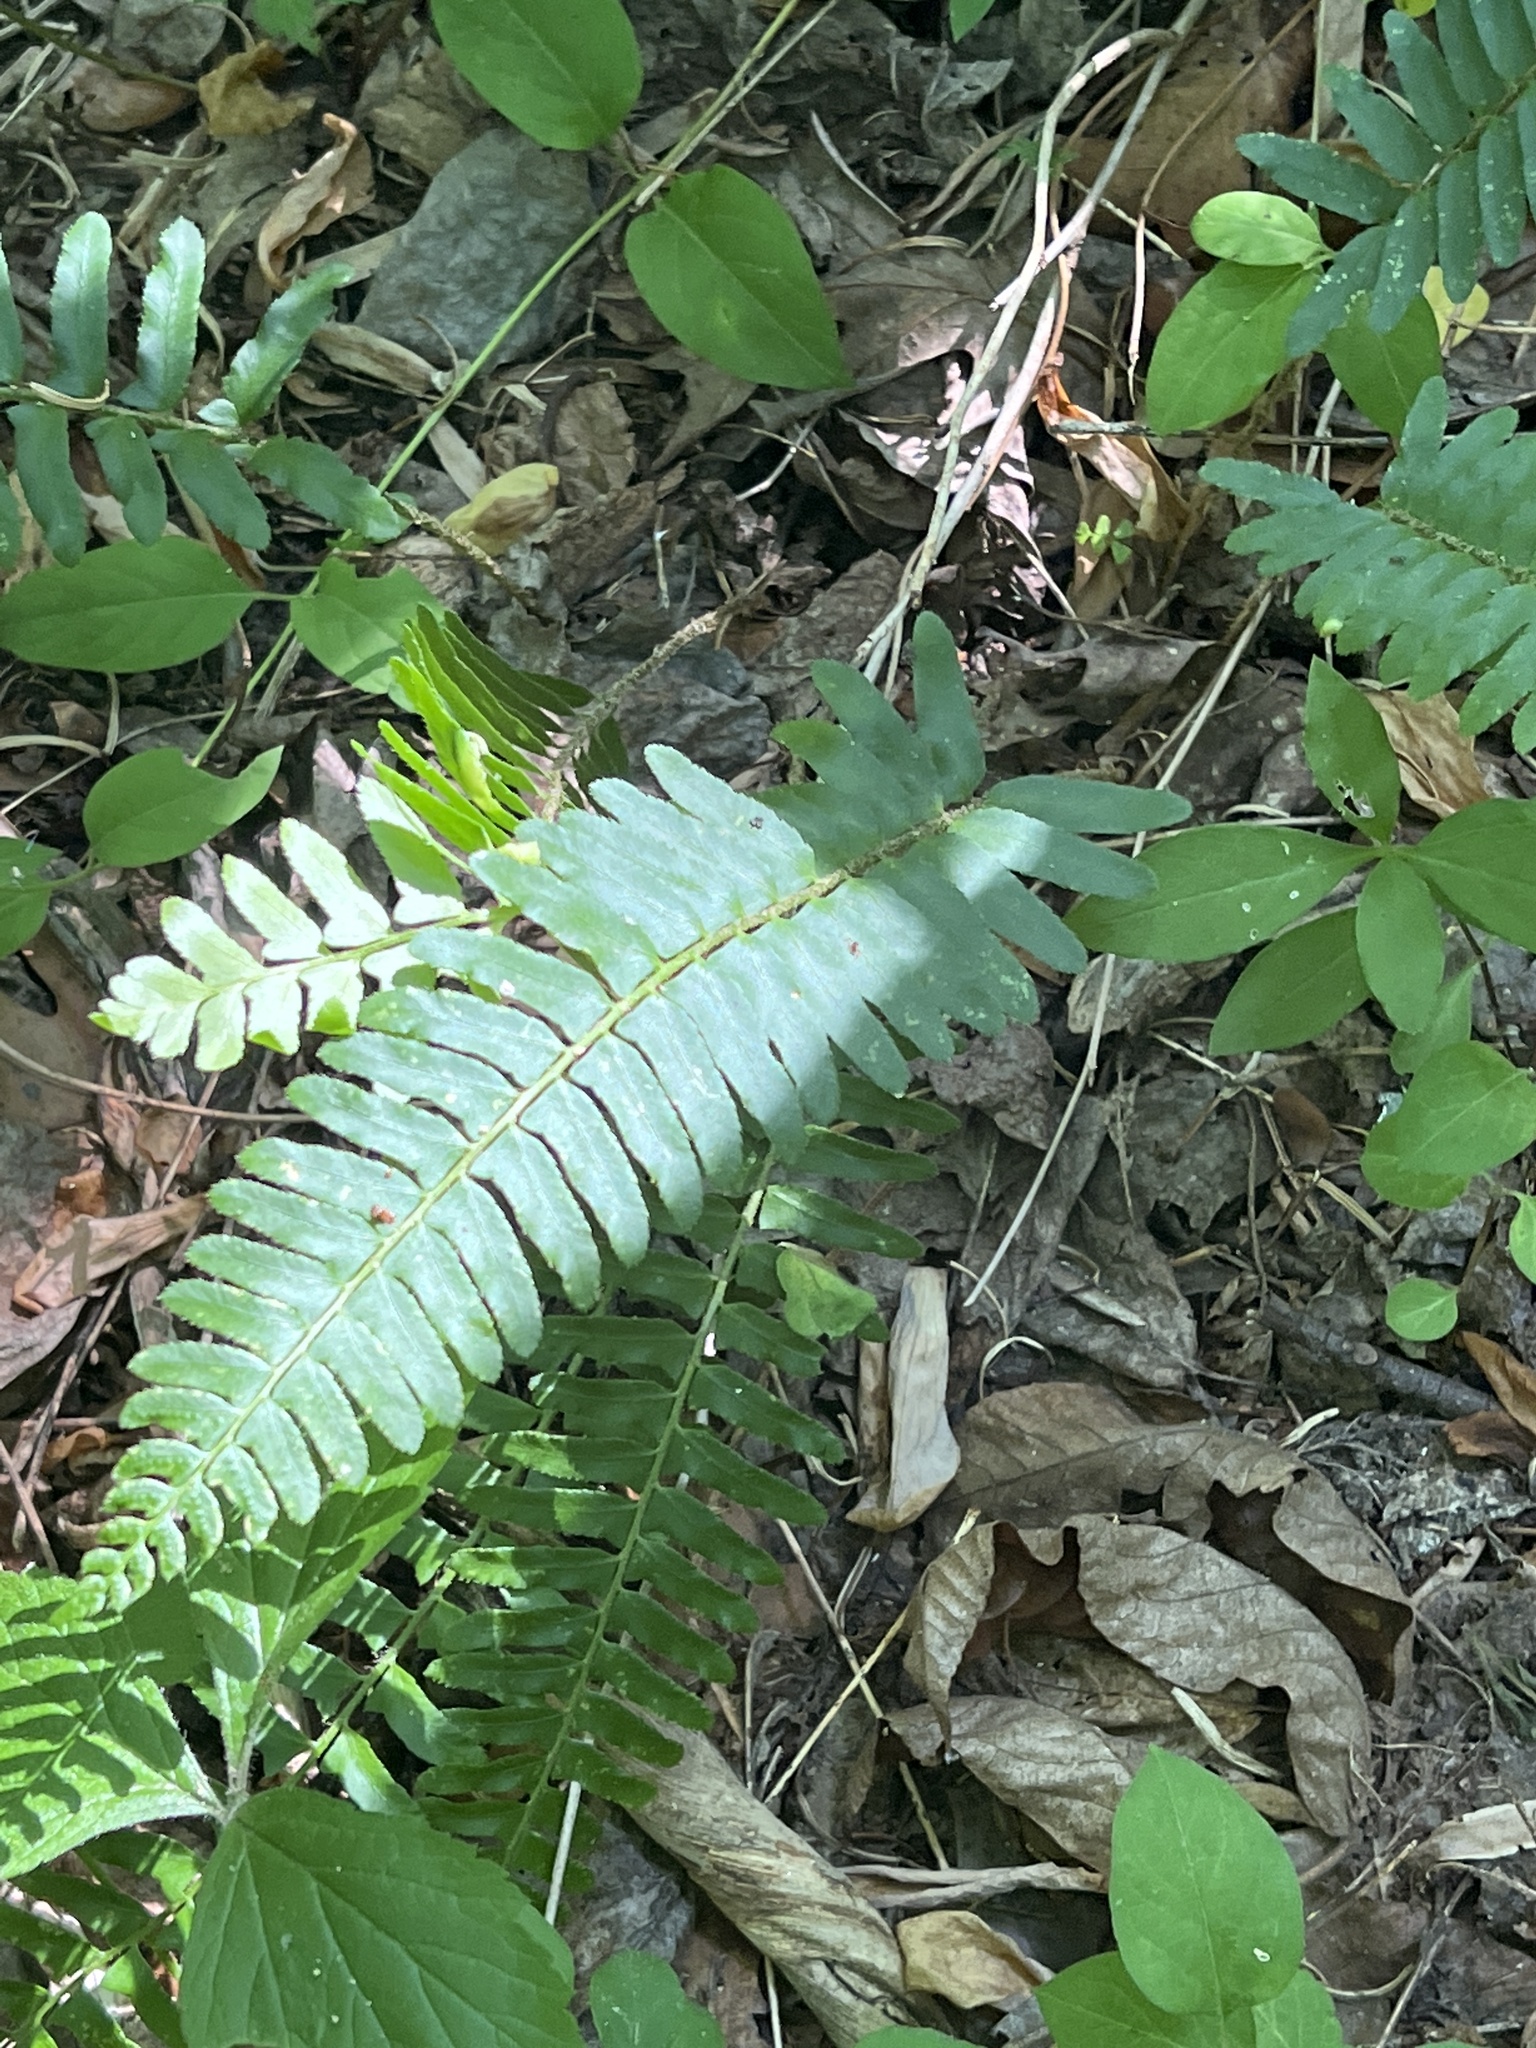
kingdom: Plantae
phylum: Tracheophyta
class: Polypodiopsida
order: Polypodiales
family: Dryopteridaceae
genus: Polystichum
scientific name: Polystichum acrostichoides
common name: Christmas fern
